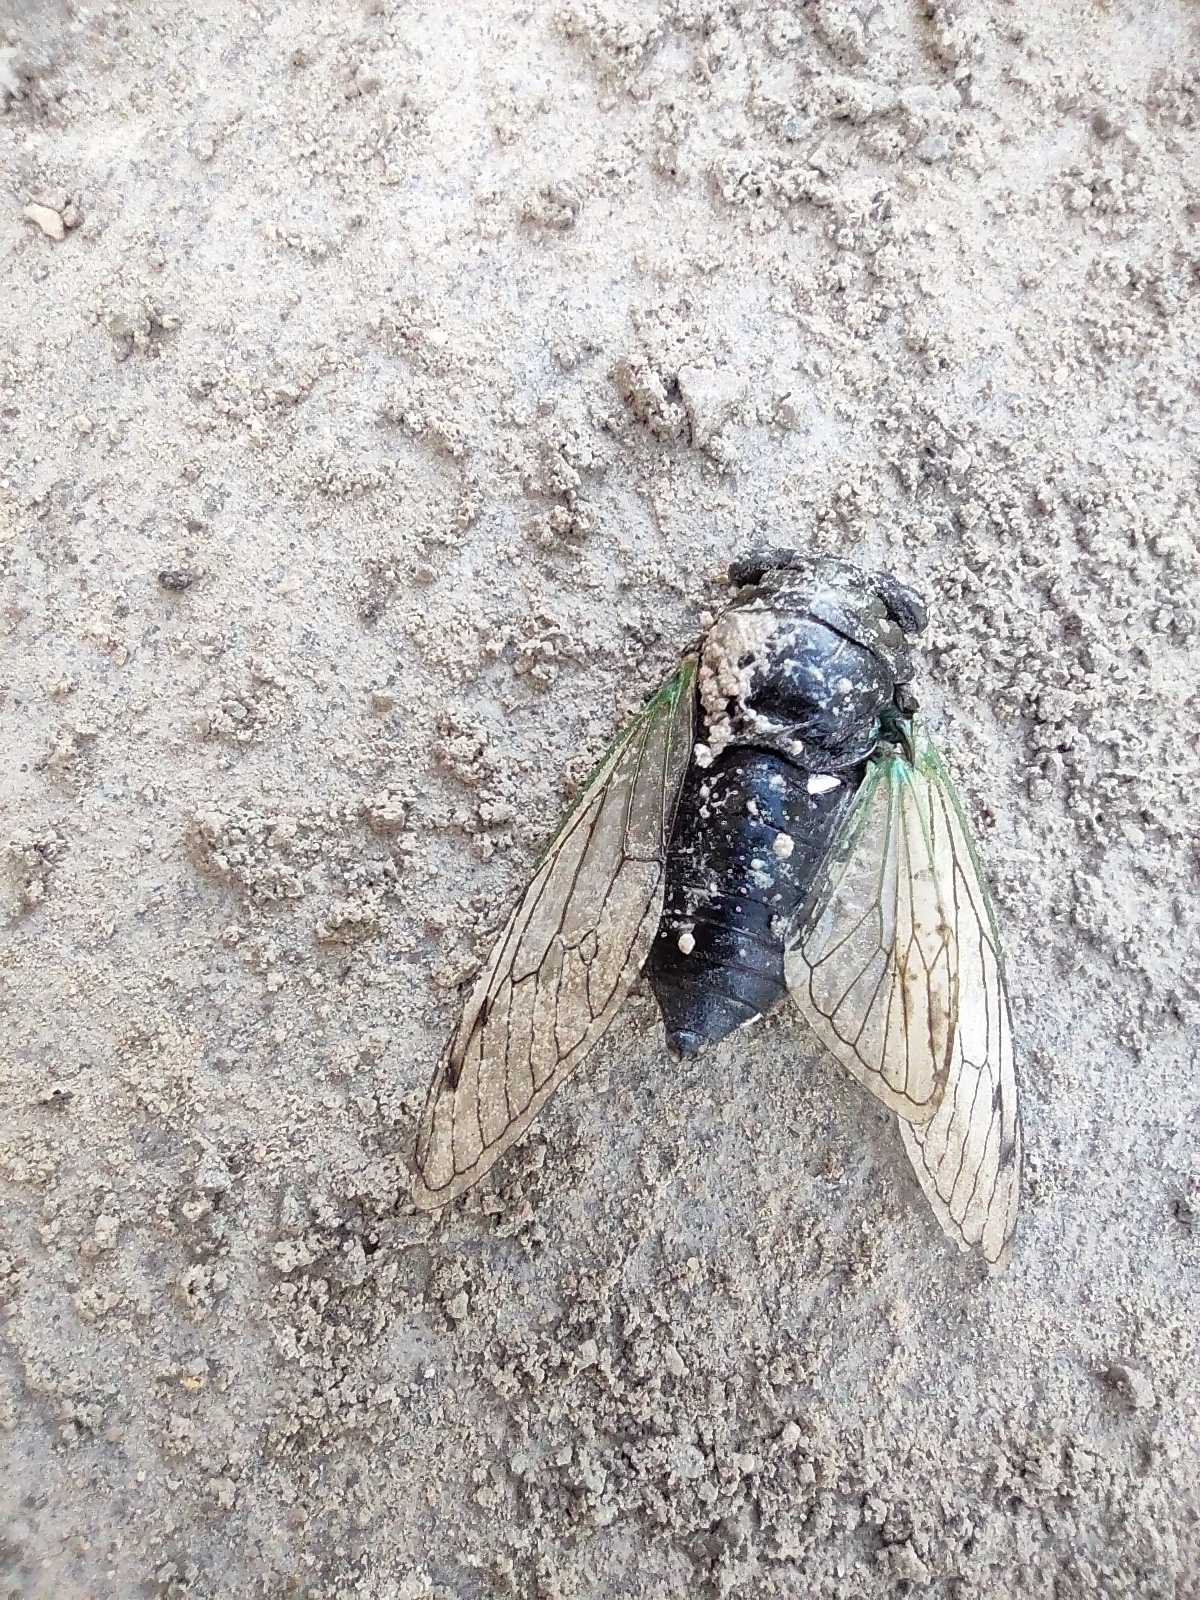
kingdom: Animalia
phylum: Arthropoda
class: Insecta
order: Hemiptera
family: Cicadidae
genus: Neotibicen
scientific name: Neotibicen tibicen
